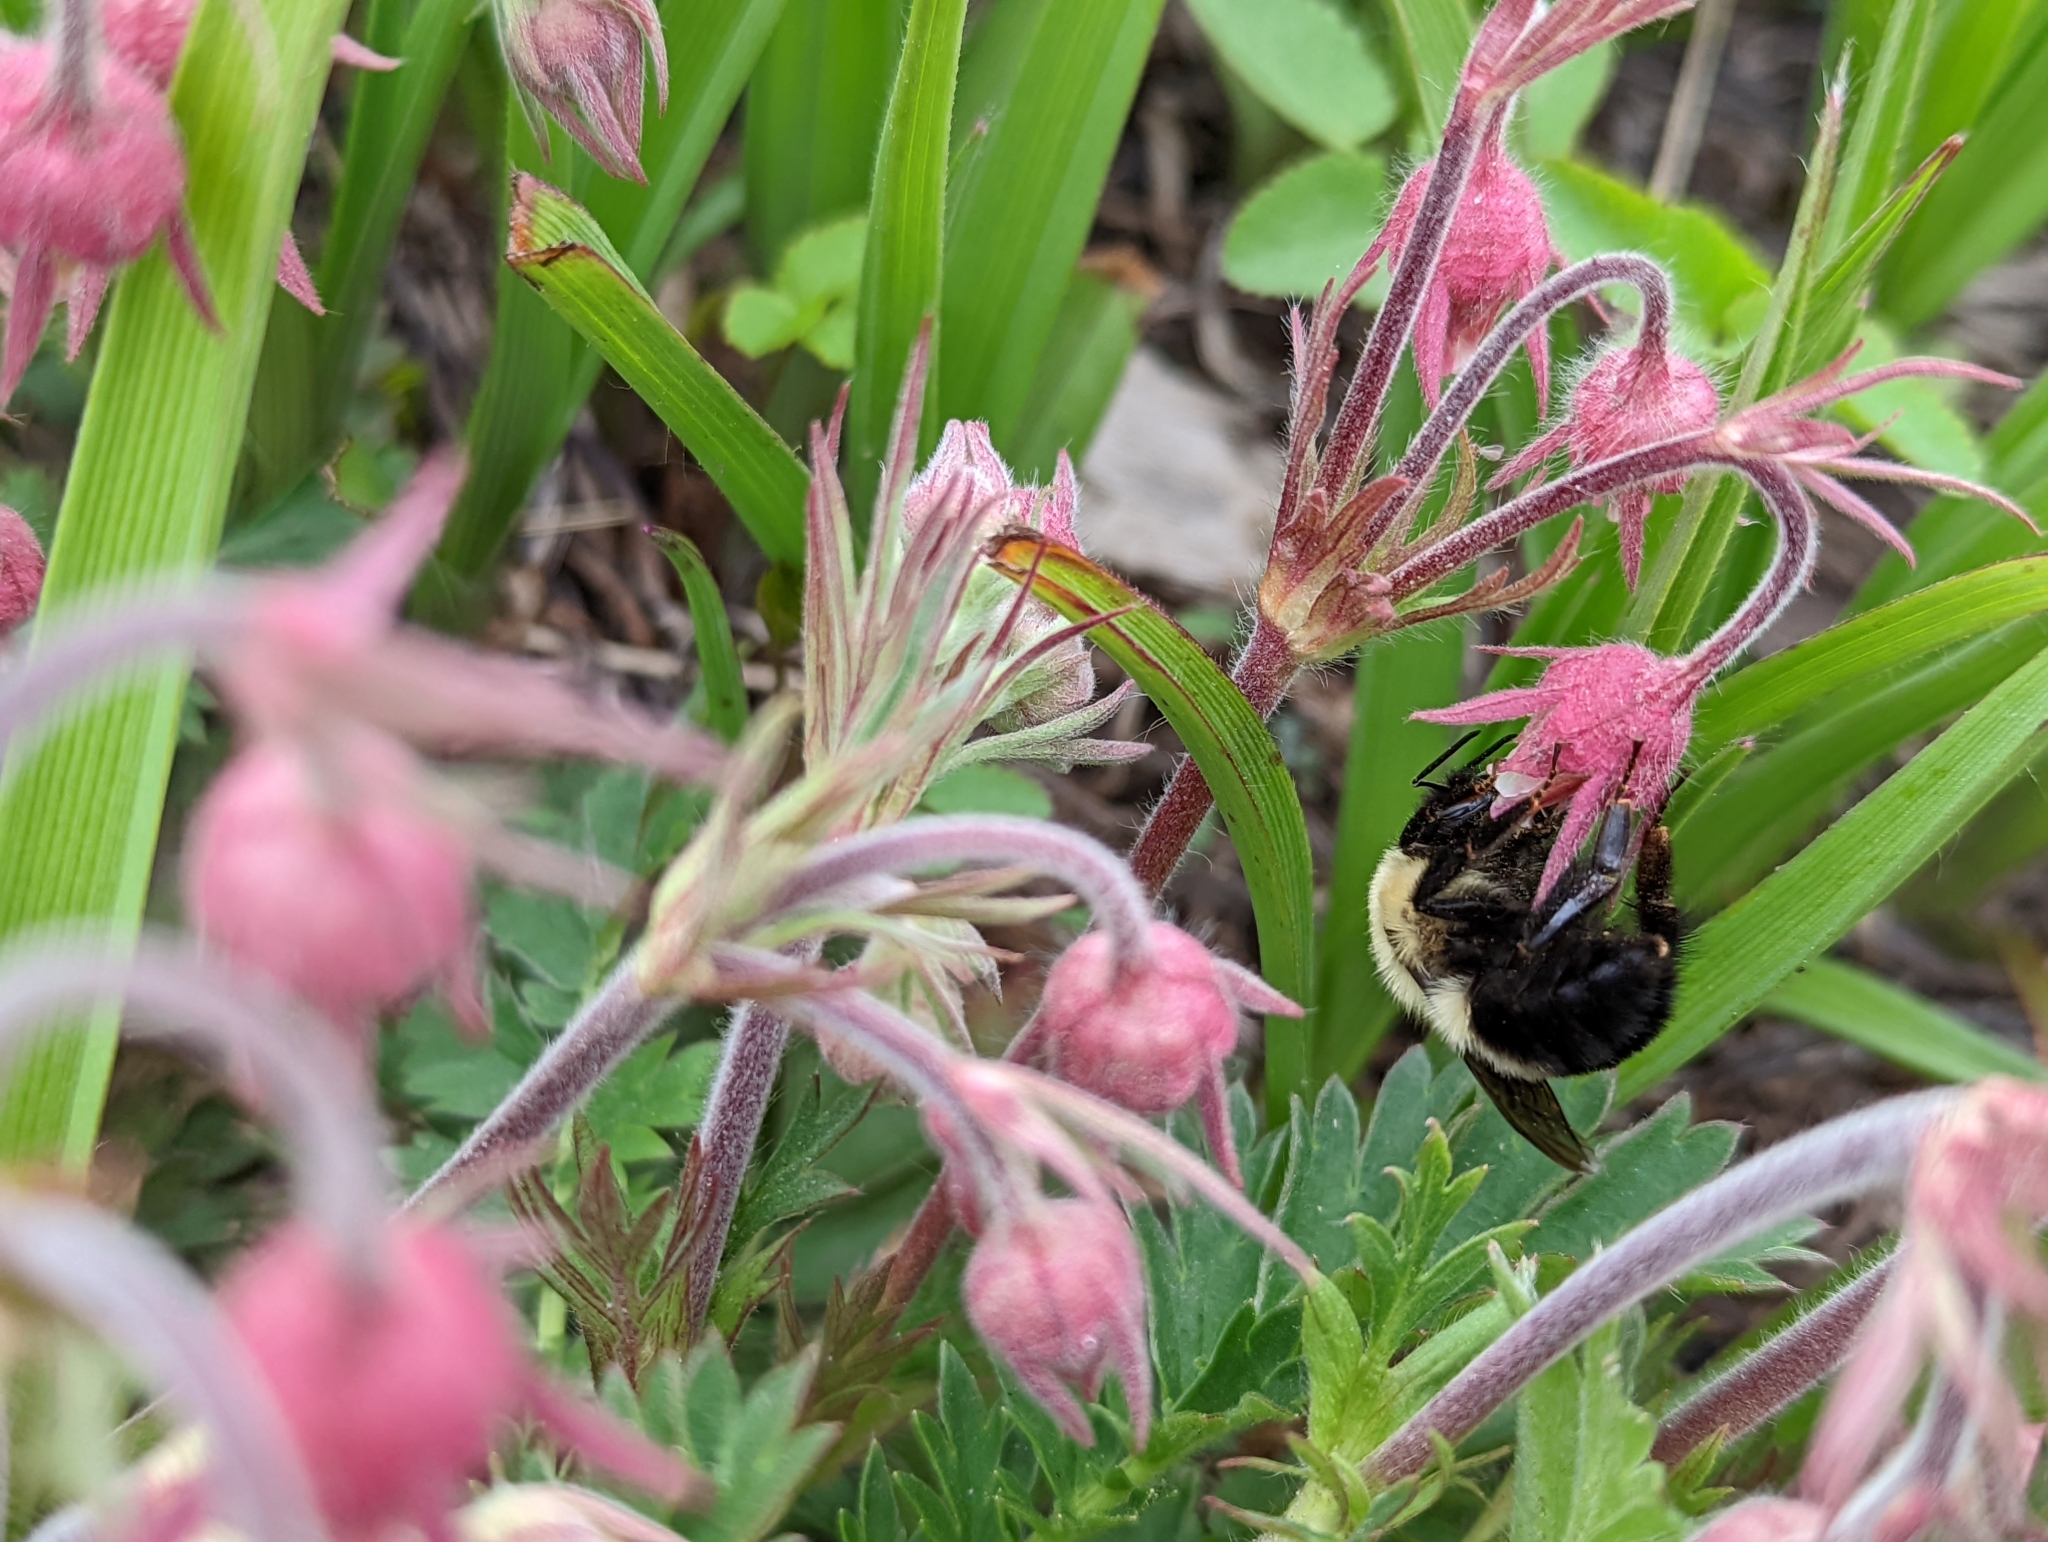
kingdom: Animalia
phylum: Arthropoda
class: Insecta
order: Hymenoptera
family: Apidae
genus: Bombus
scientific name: Bombus bimaculatus
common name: Two-spotted bumble bee
